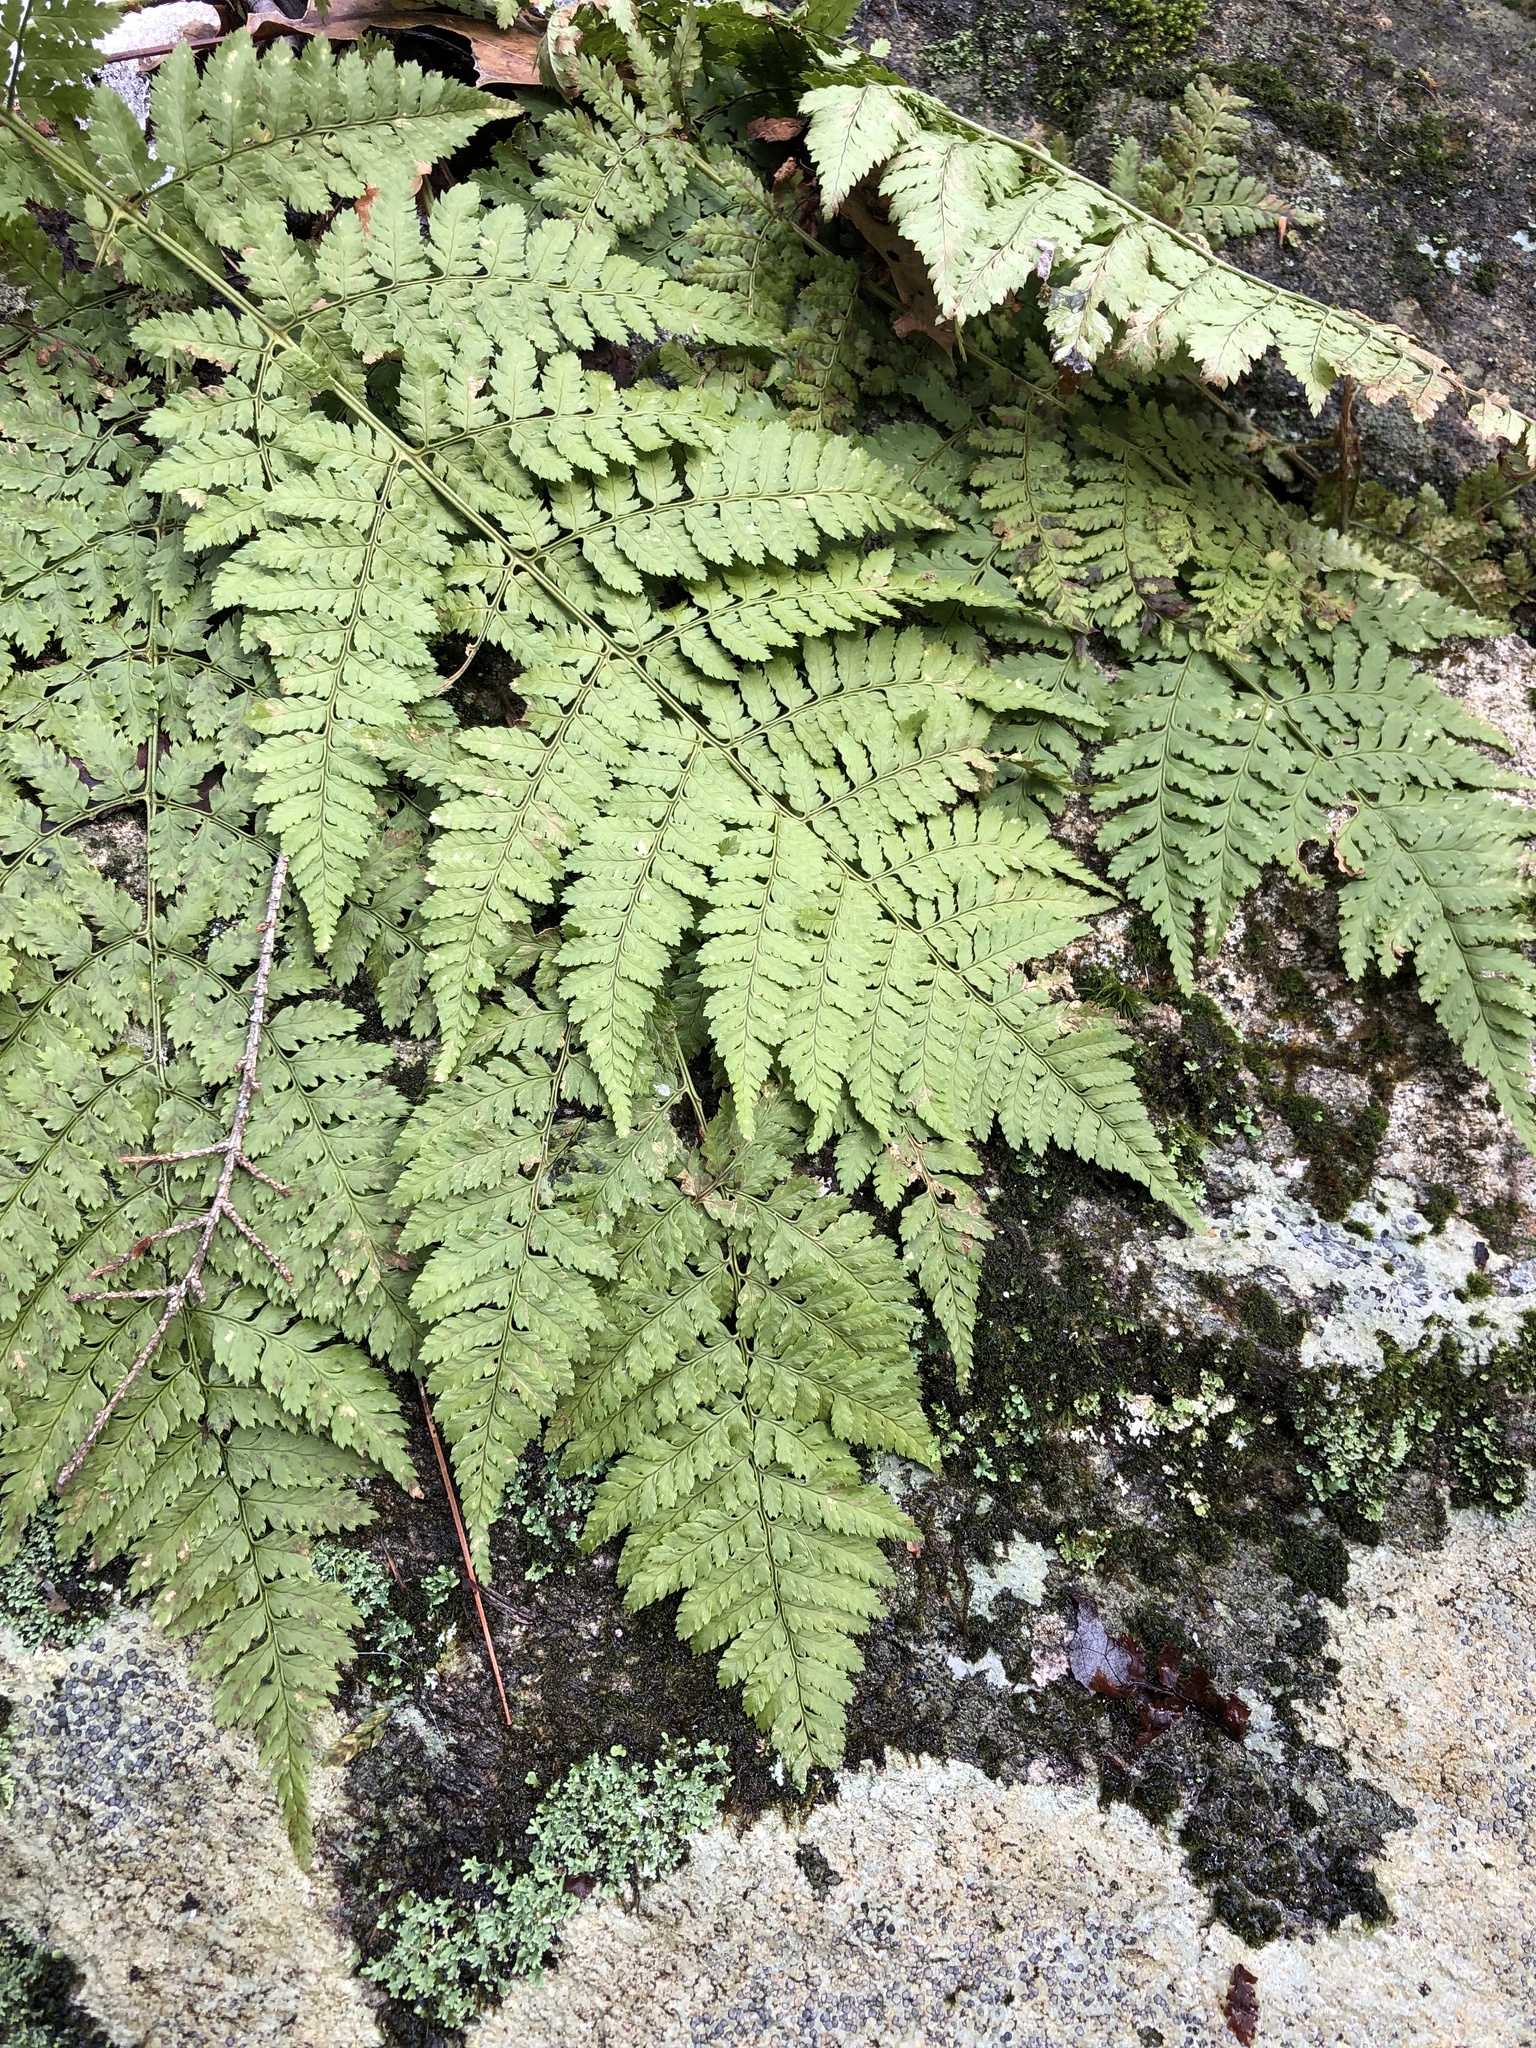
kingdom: Plantae
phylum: Tracheophyta
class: Polypodiopsida
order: Polypodiales
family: Dryopteridaceae
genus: Dryopteris
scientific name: Dryopteris intermedia
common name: Evergreen wood fern
